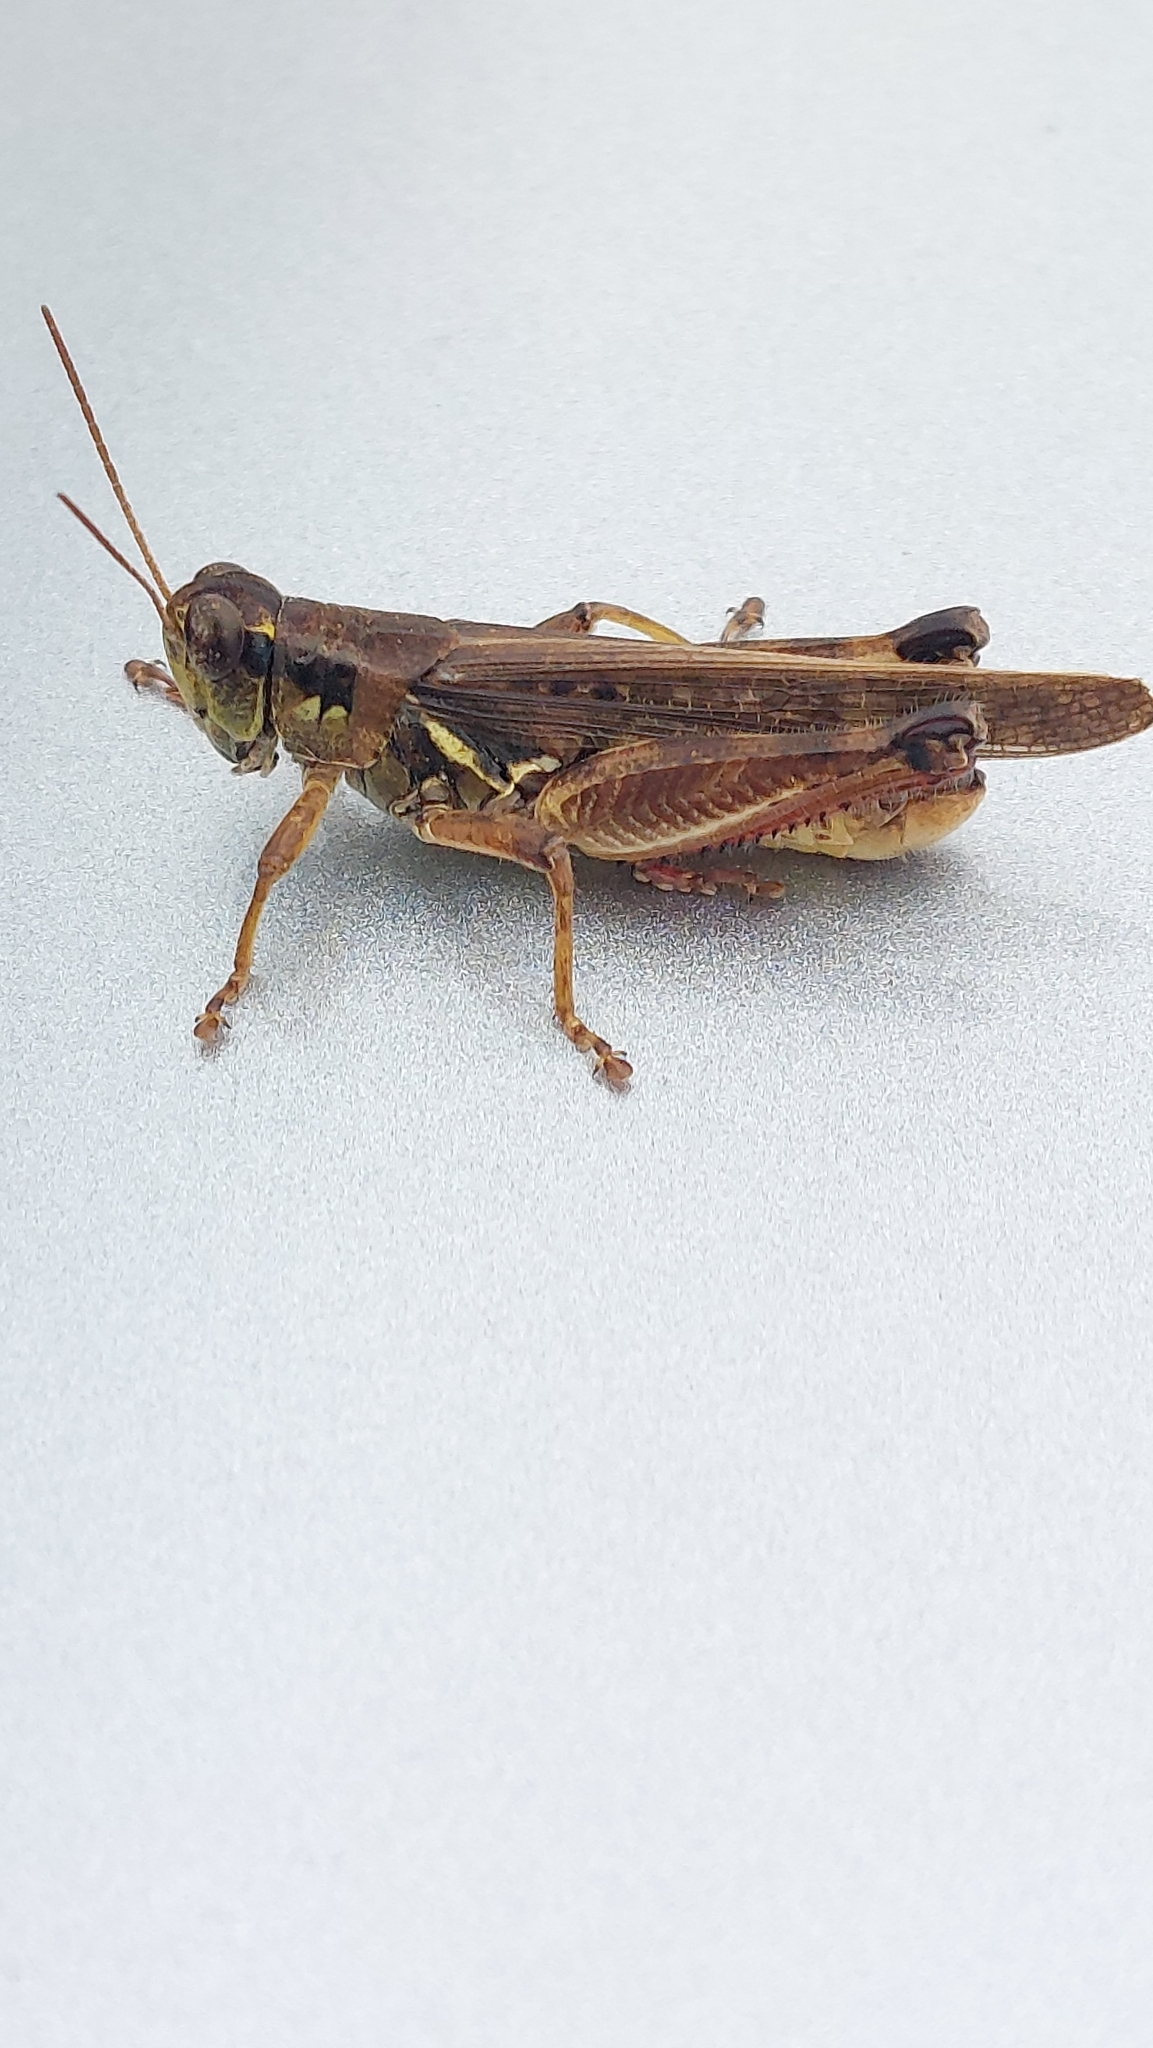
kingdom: Animalia
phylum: Arthropoda
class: Insecta
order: Orthoptera
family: Acrididae
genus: Melanoplus
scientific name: Melanoplus sanguinipes
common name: Migratory grasshopper
